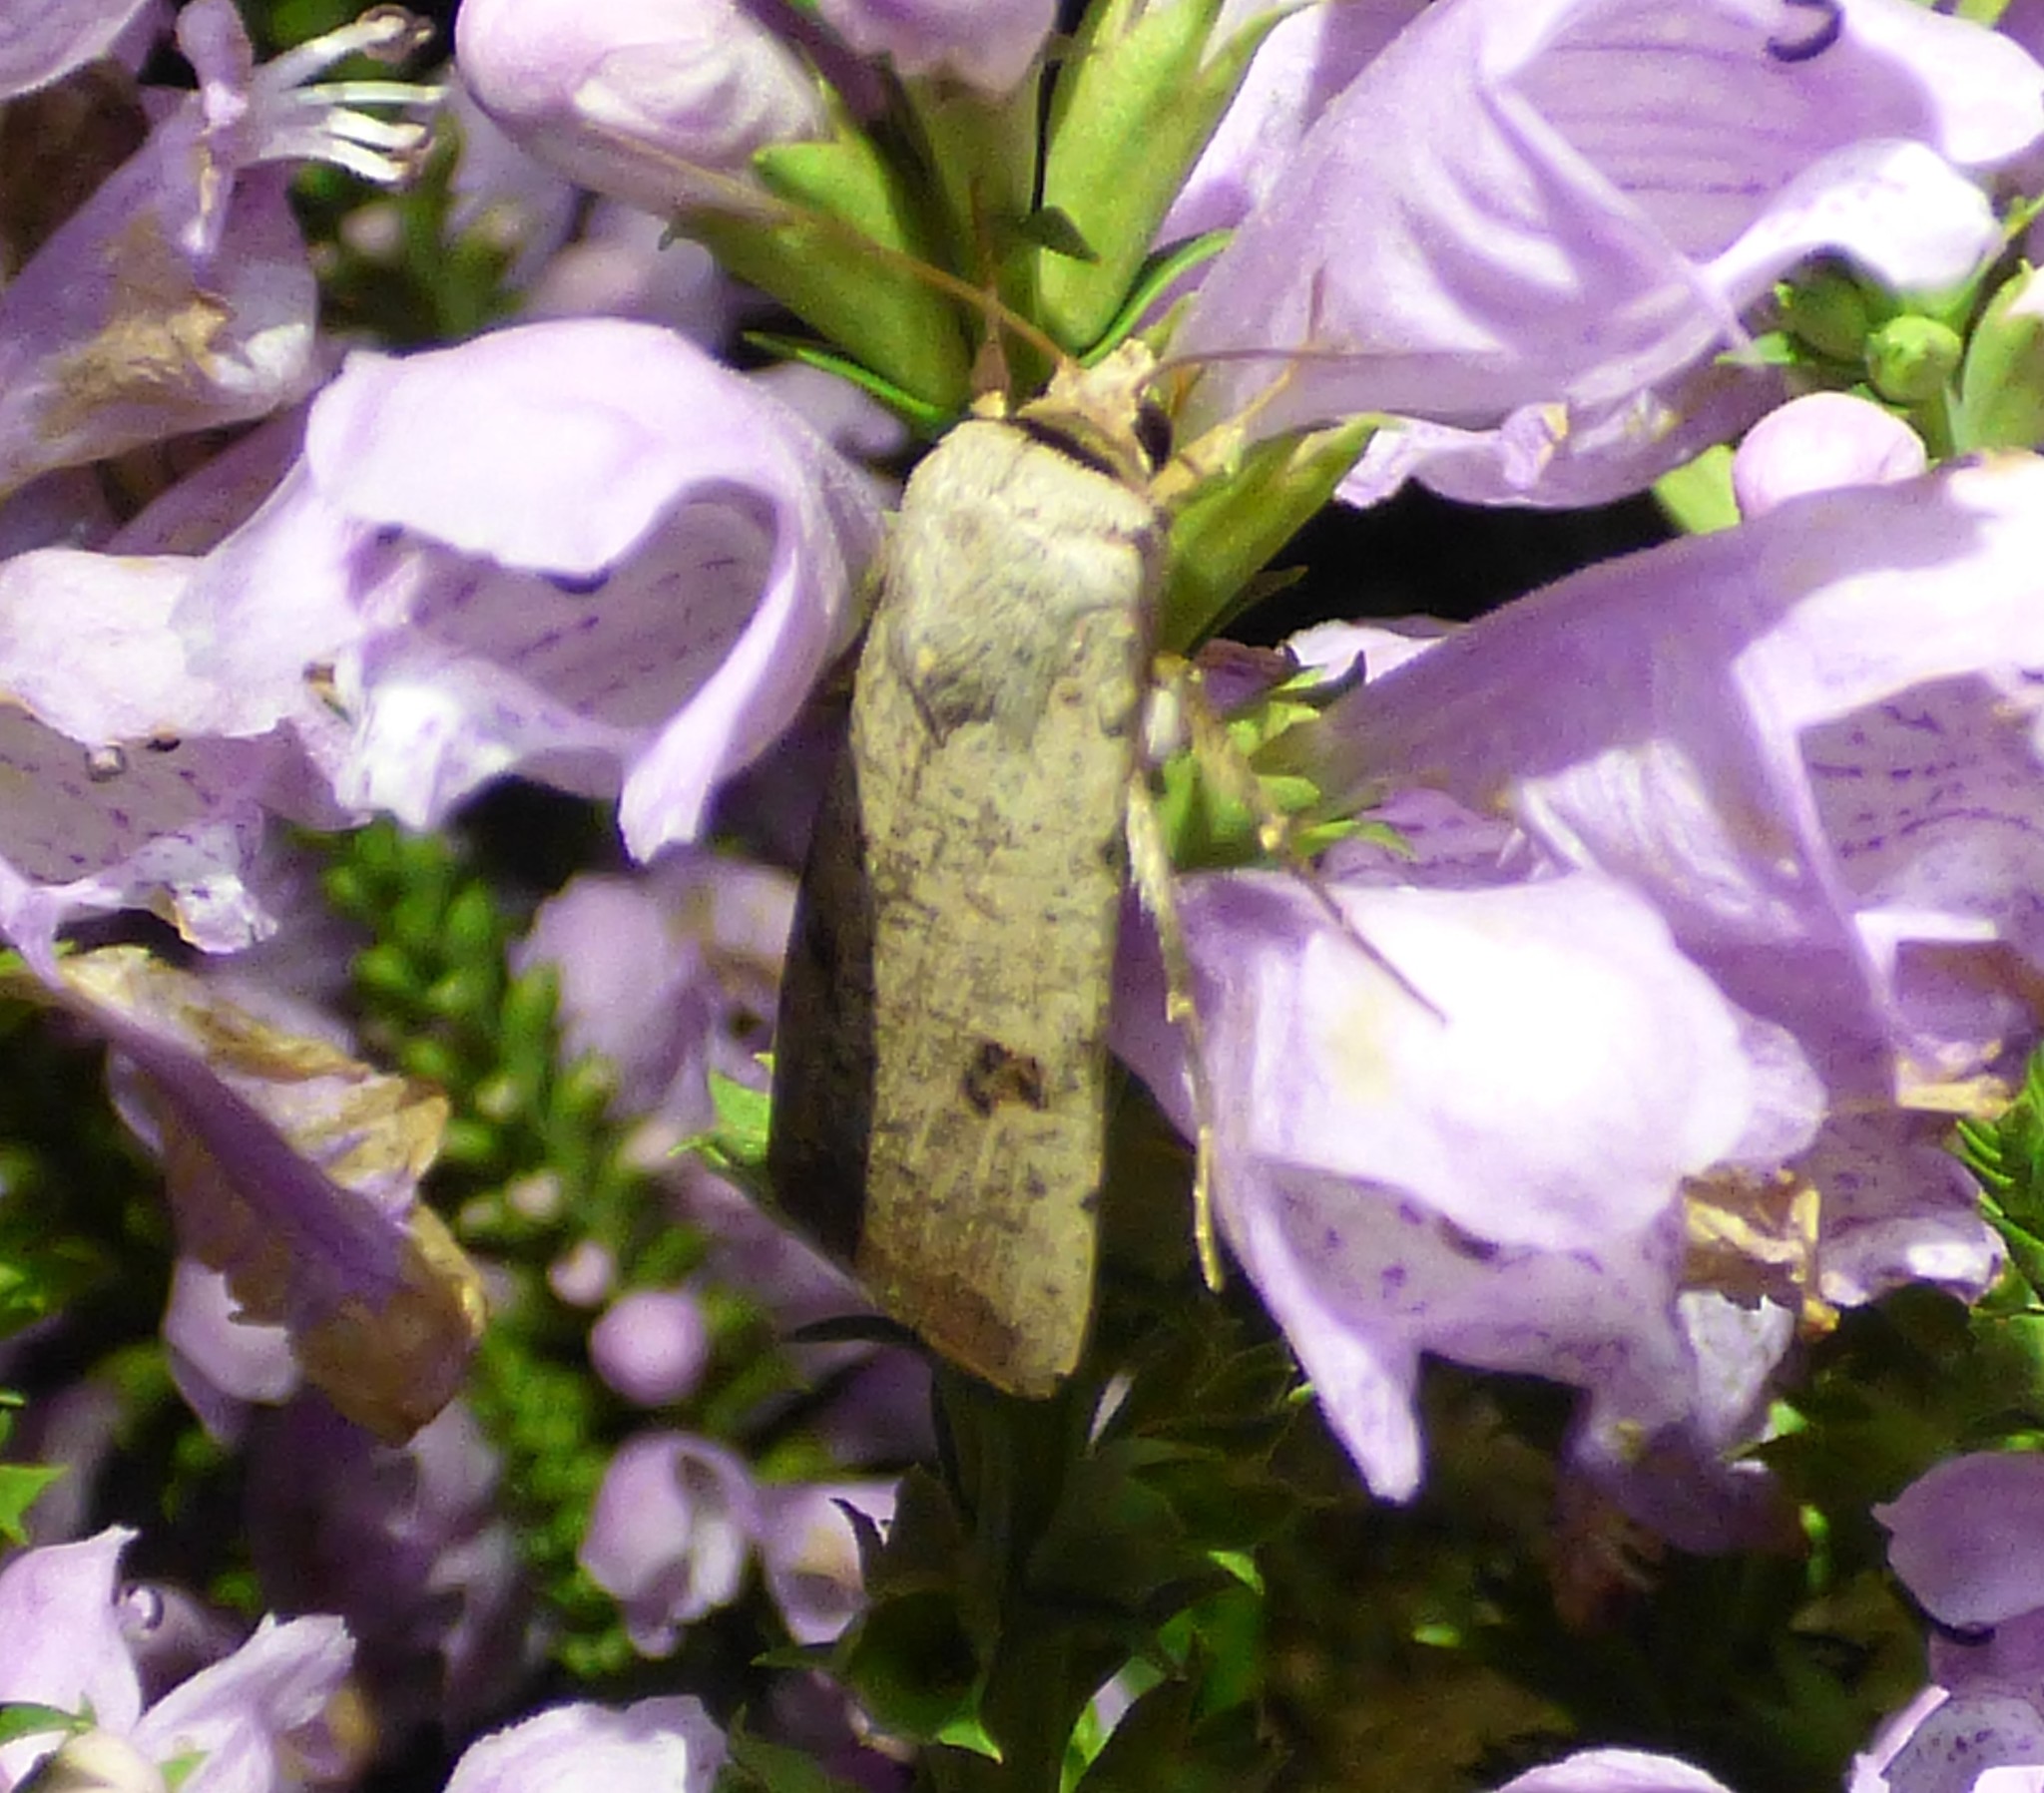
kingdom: Animalia
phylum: Arthropoda
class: Insecta
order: Lepidoptera
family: Noctuidae
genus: Anicla
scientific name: Anicla infecta
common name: Green cutworm
